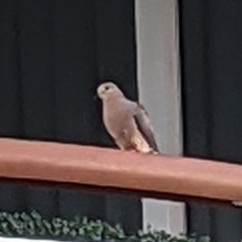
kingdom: Animalia
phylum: Chordata
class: Aves
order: Columbiformes
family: Columbidae
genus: Zenaida
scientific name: Zenaida macroura
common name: Mourning dove
